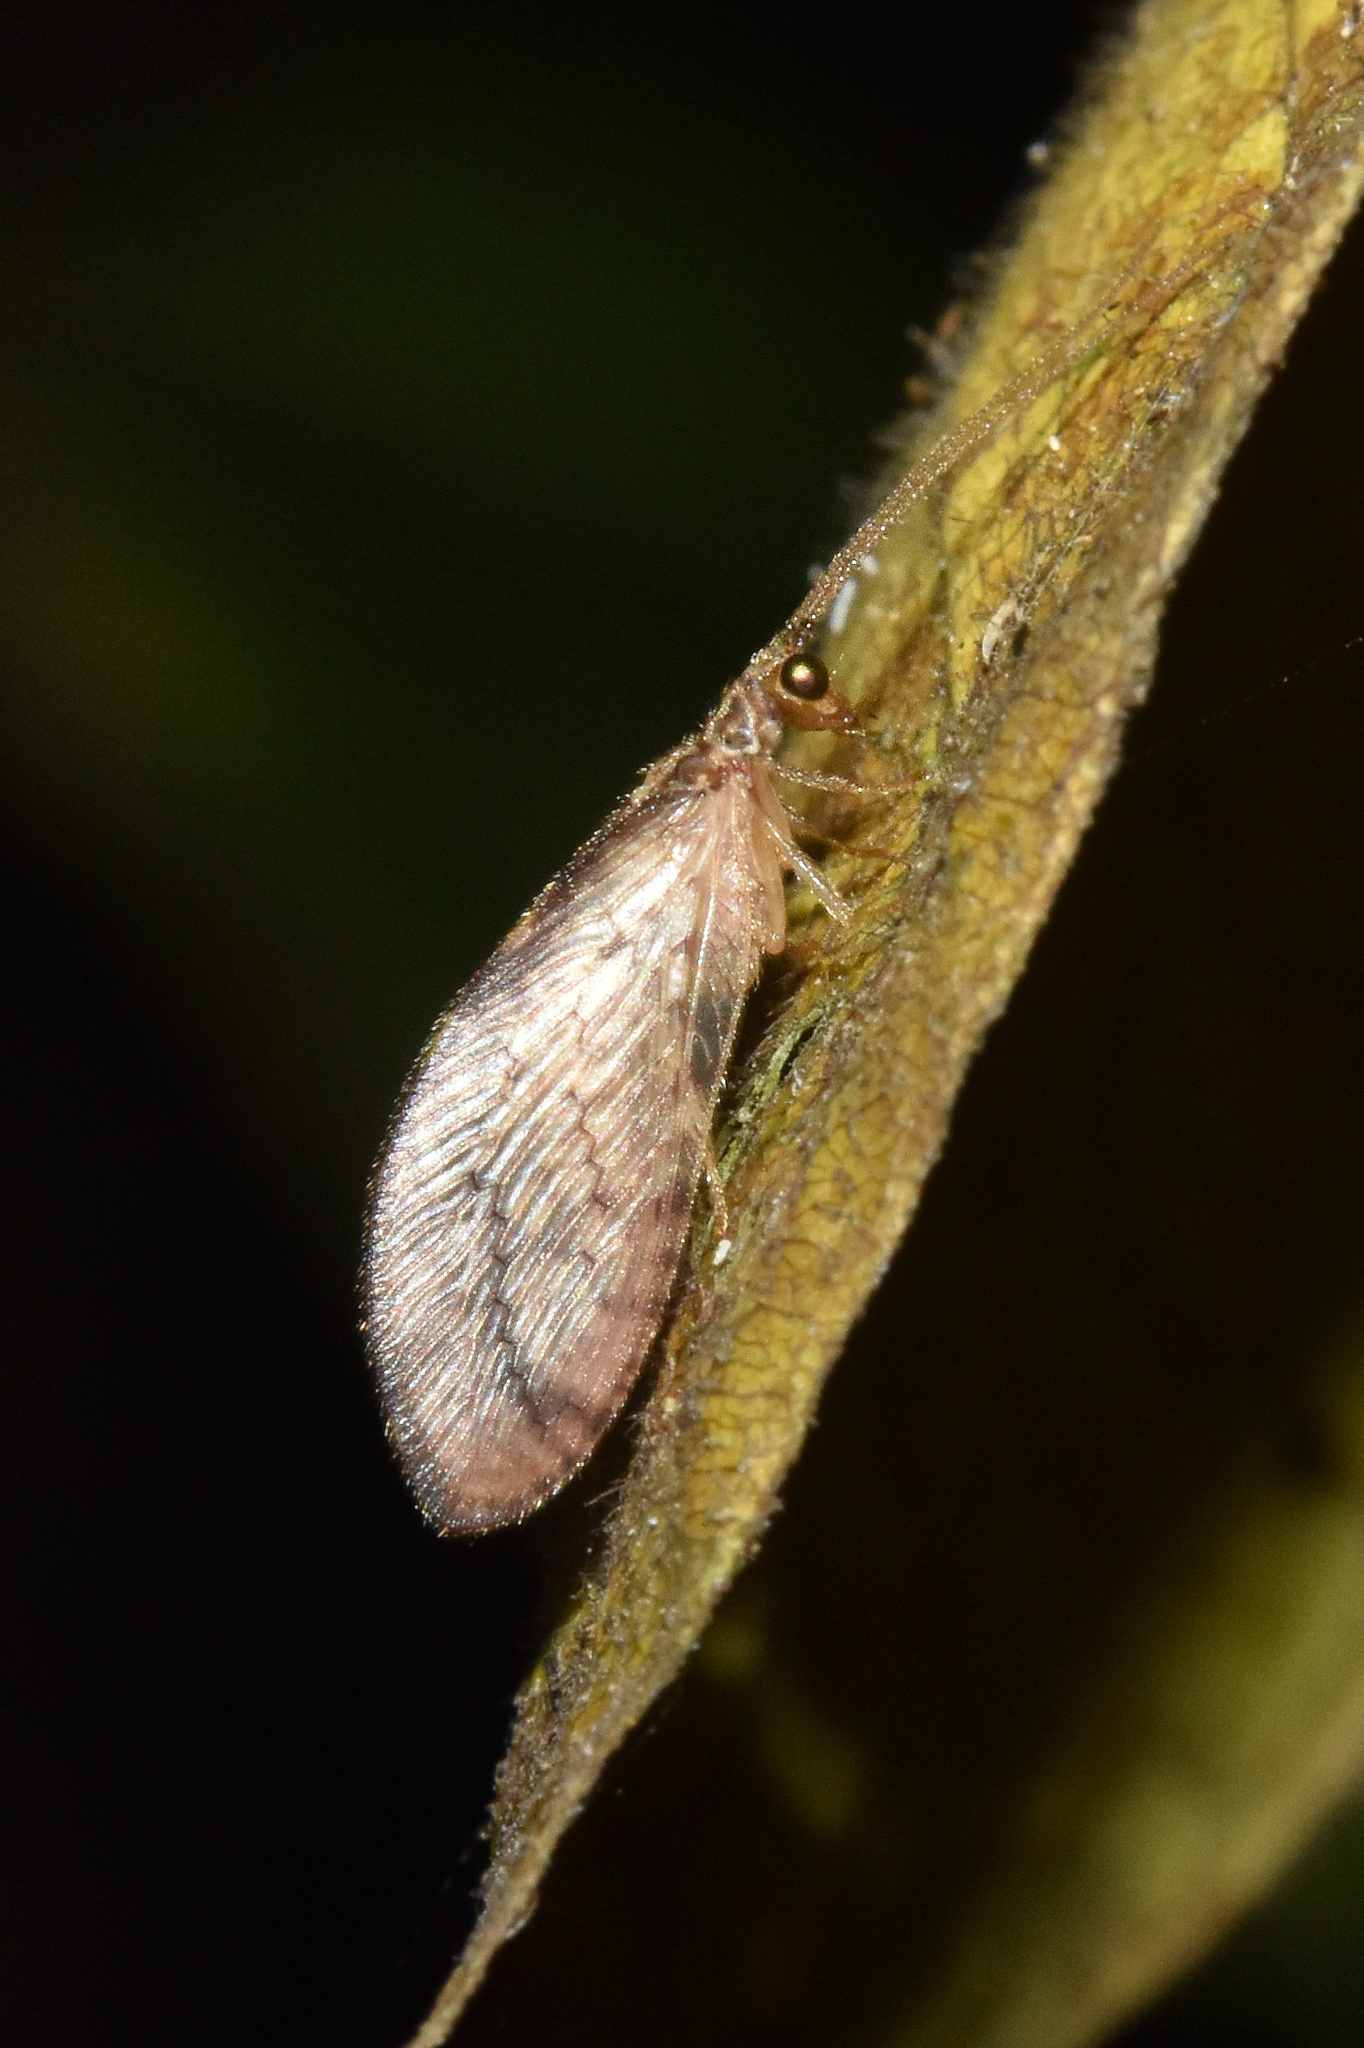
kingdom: Animalia
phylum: Arthropoda
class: Insecta
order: Neuroptera
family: Hemerobiidae
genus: Micromus
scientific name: Micromus timidus
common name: Brown lacewing
